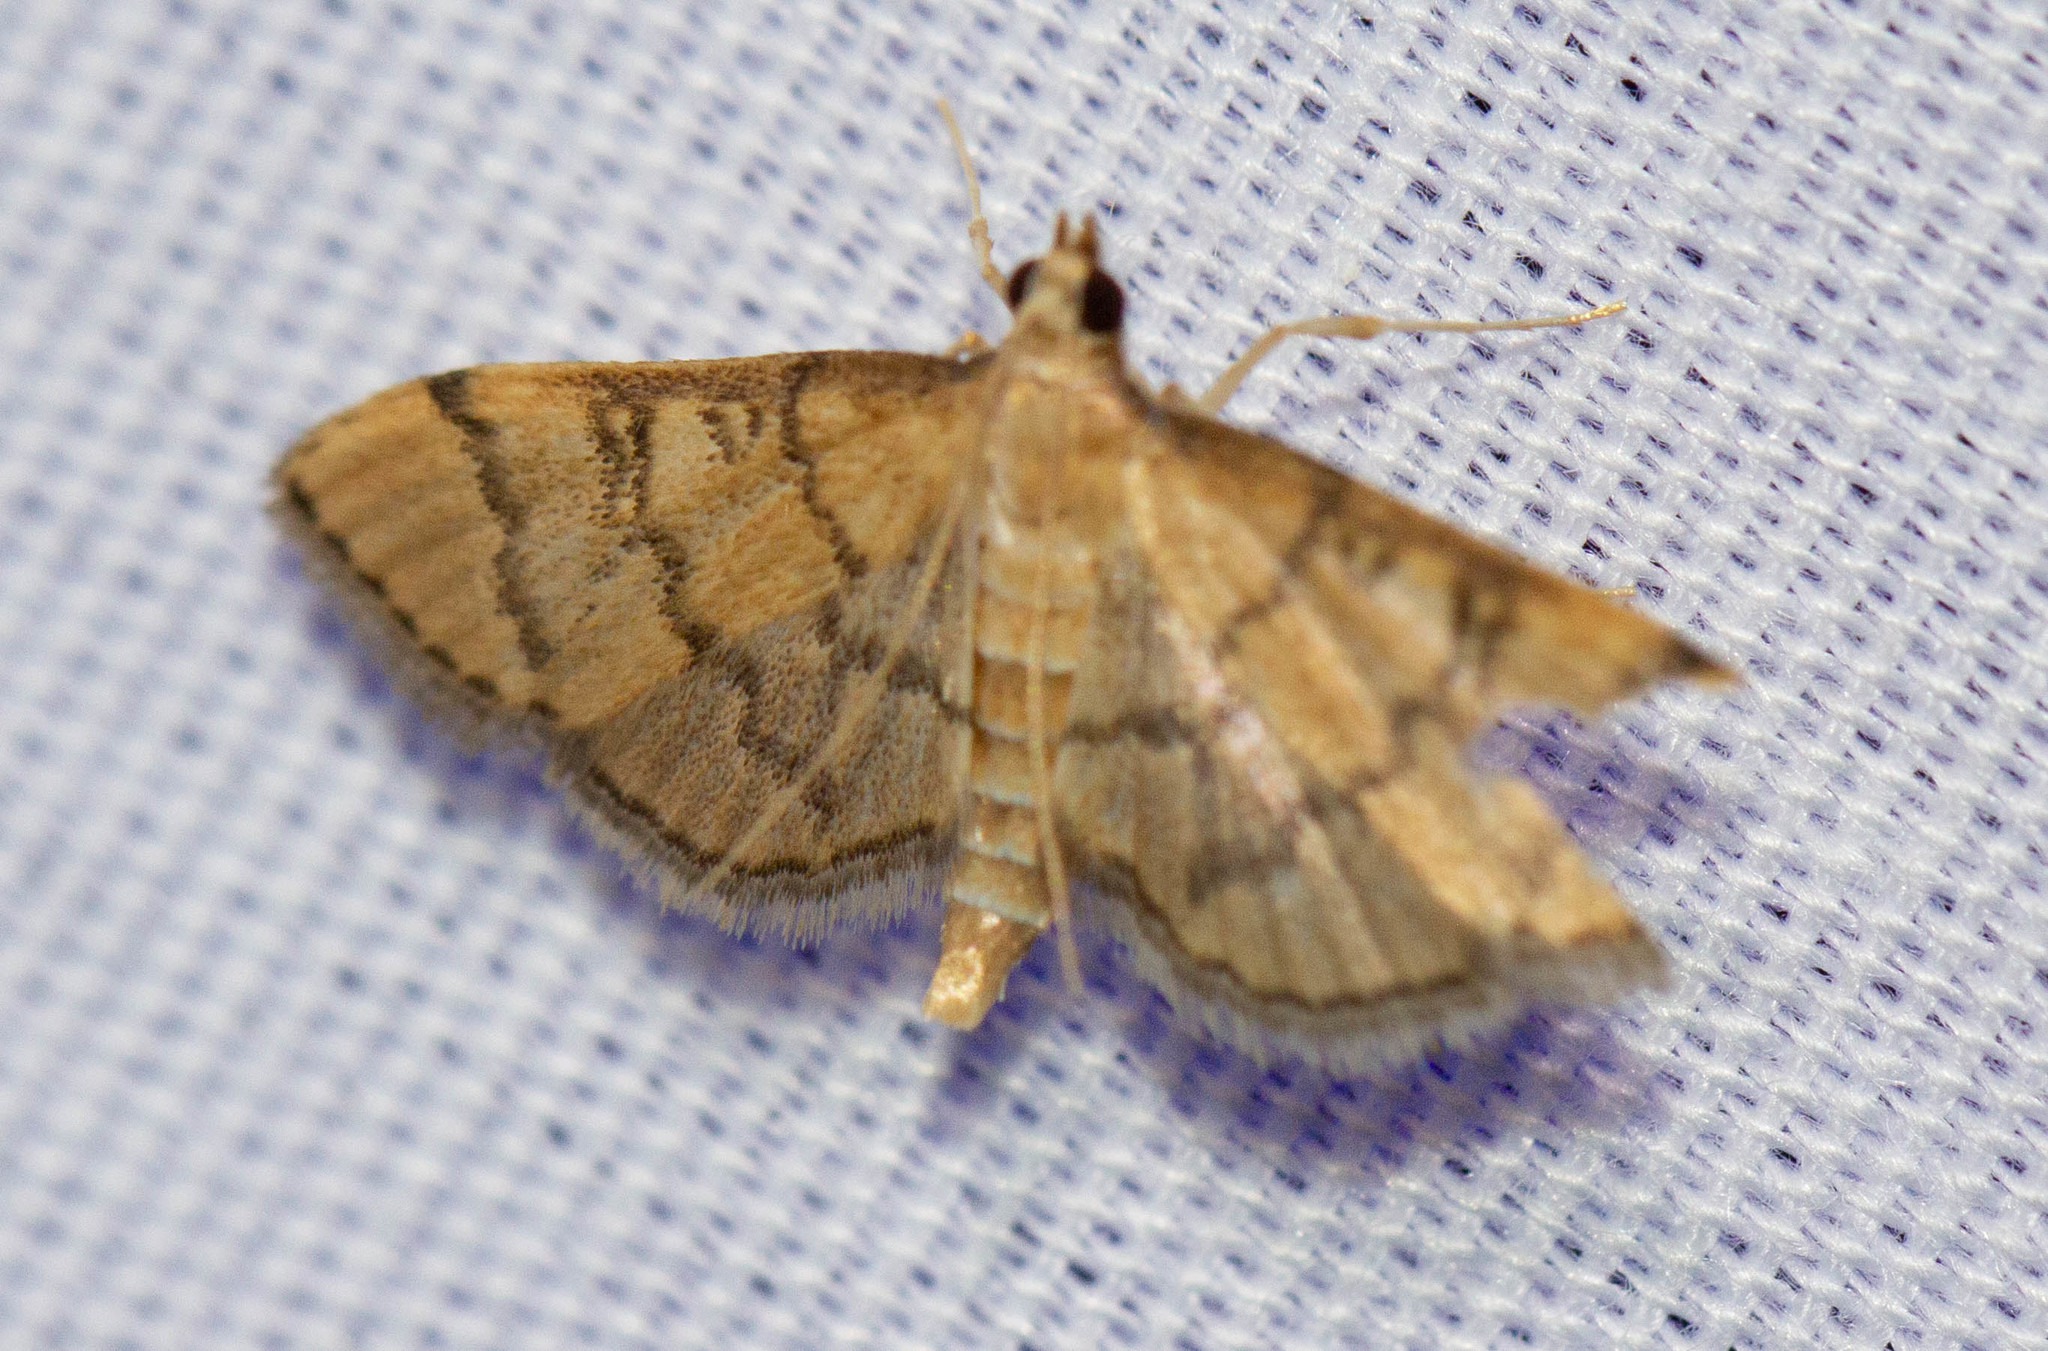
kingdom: Animalia
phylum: Arthropoda
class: Insecta
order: Lepidoptera
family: Crambidae
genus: Lamprosema
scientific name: Lamprosema Blepharomastix ranalis
